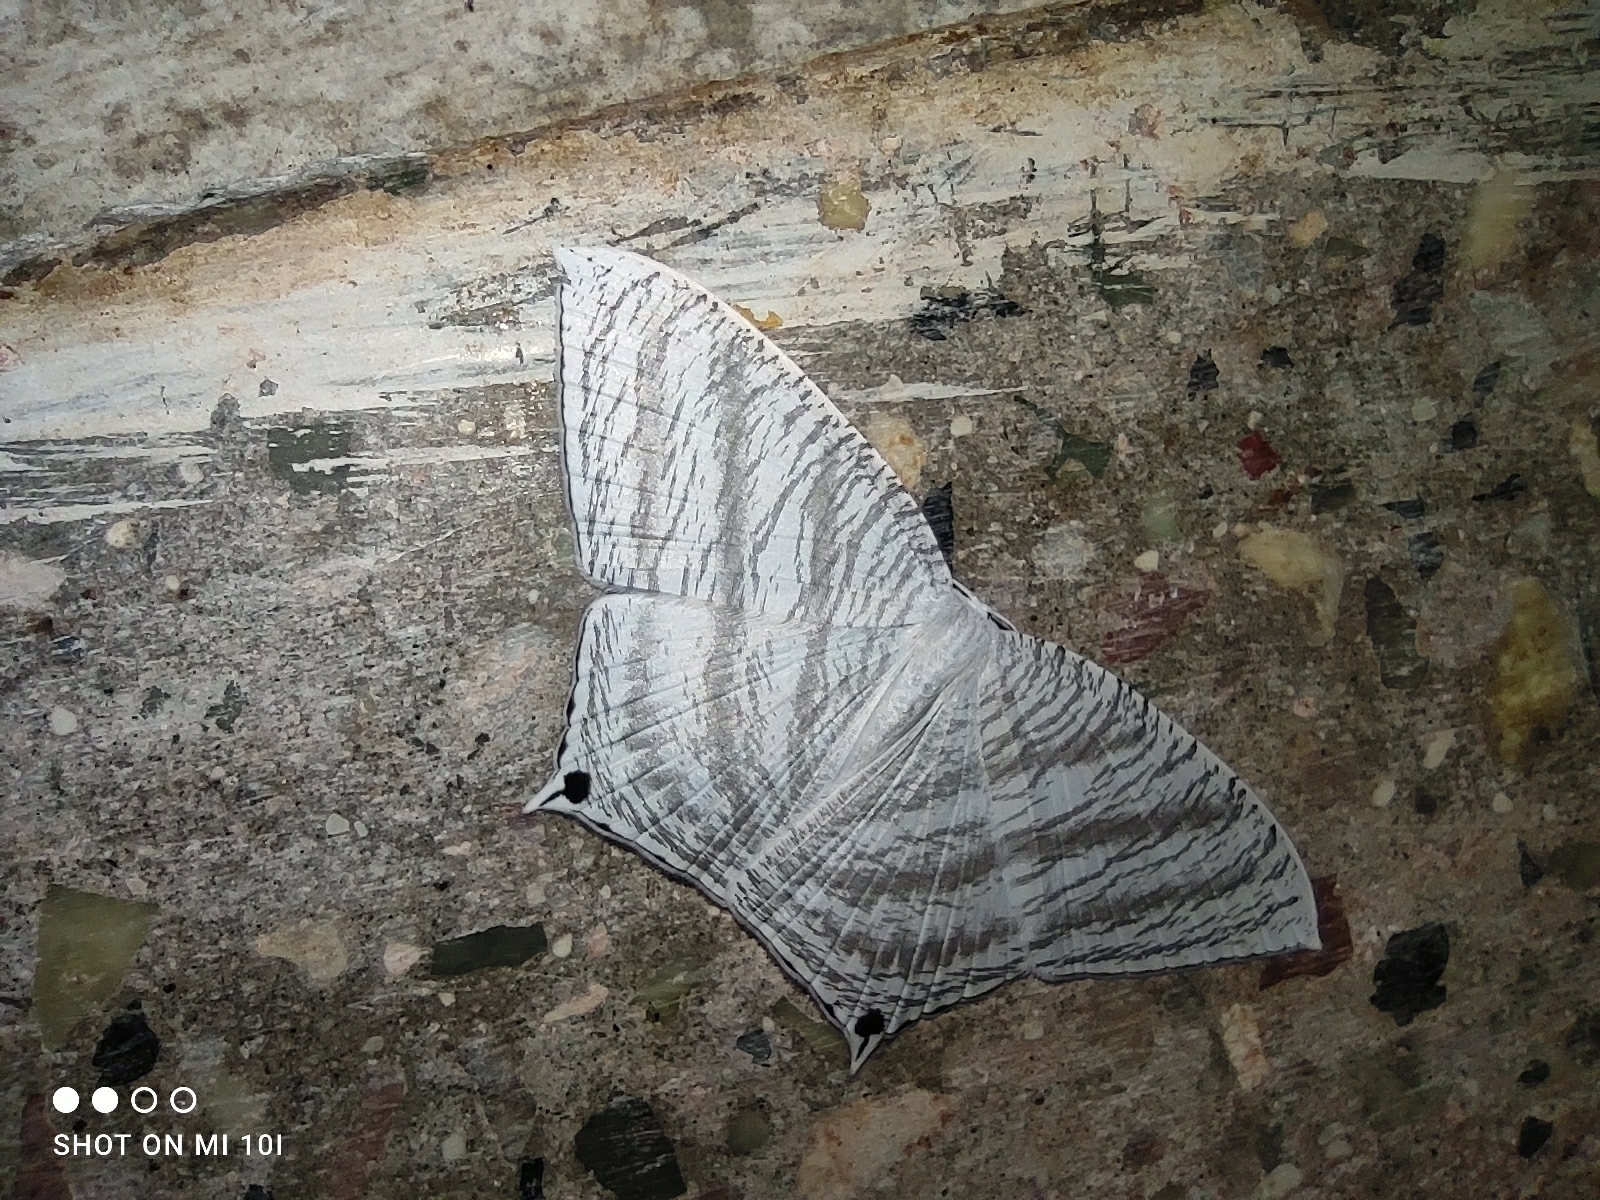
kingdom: Animalia
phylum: Arthropoda
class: Insecta
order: Lepidoptera
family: Uraniidae
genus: Micronia
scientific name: Micronia aculeata
